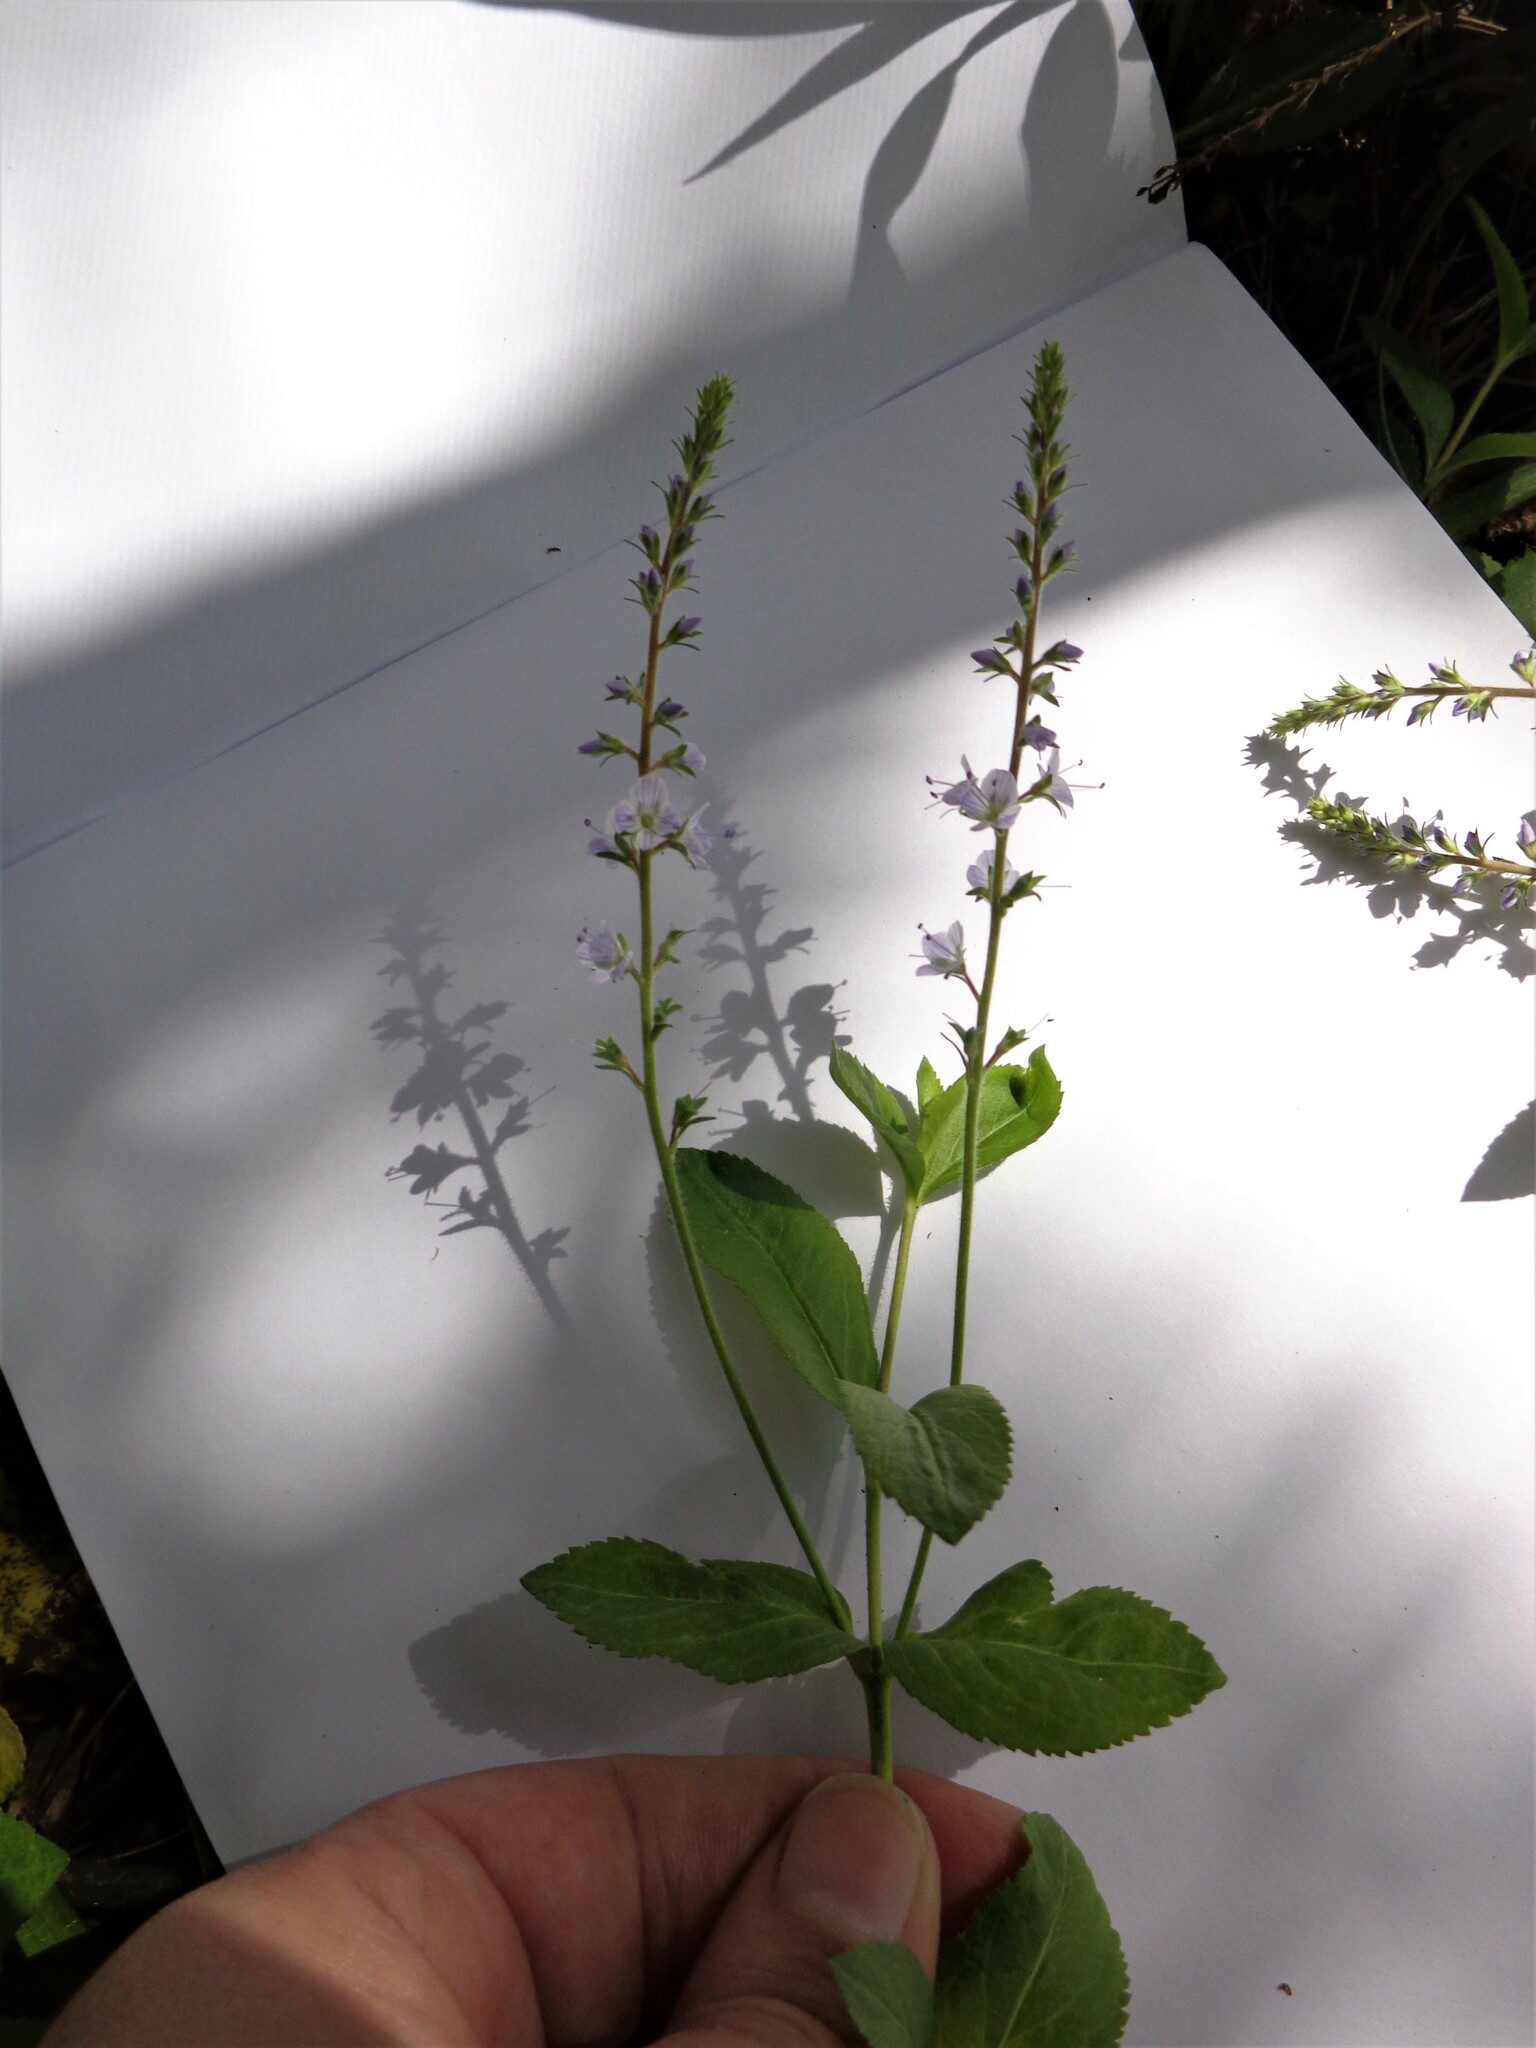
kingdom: Plantae
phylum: Tracheophyta
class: Magnoliopsida
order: Lamiales
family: Plantaginaceae
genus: Veronica
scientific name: Veronica officinalis
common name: Common speedwell
